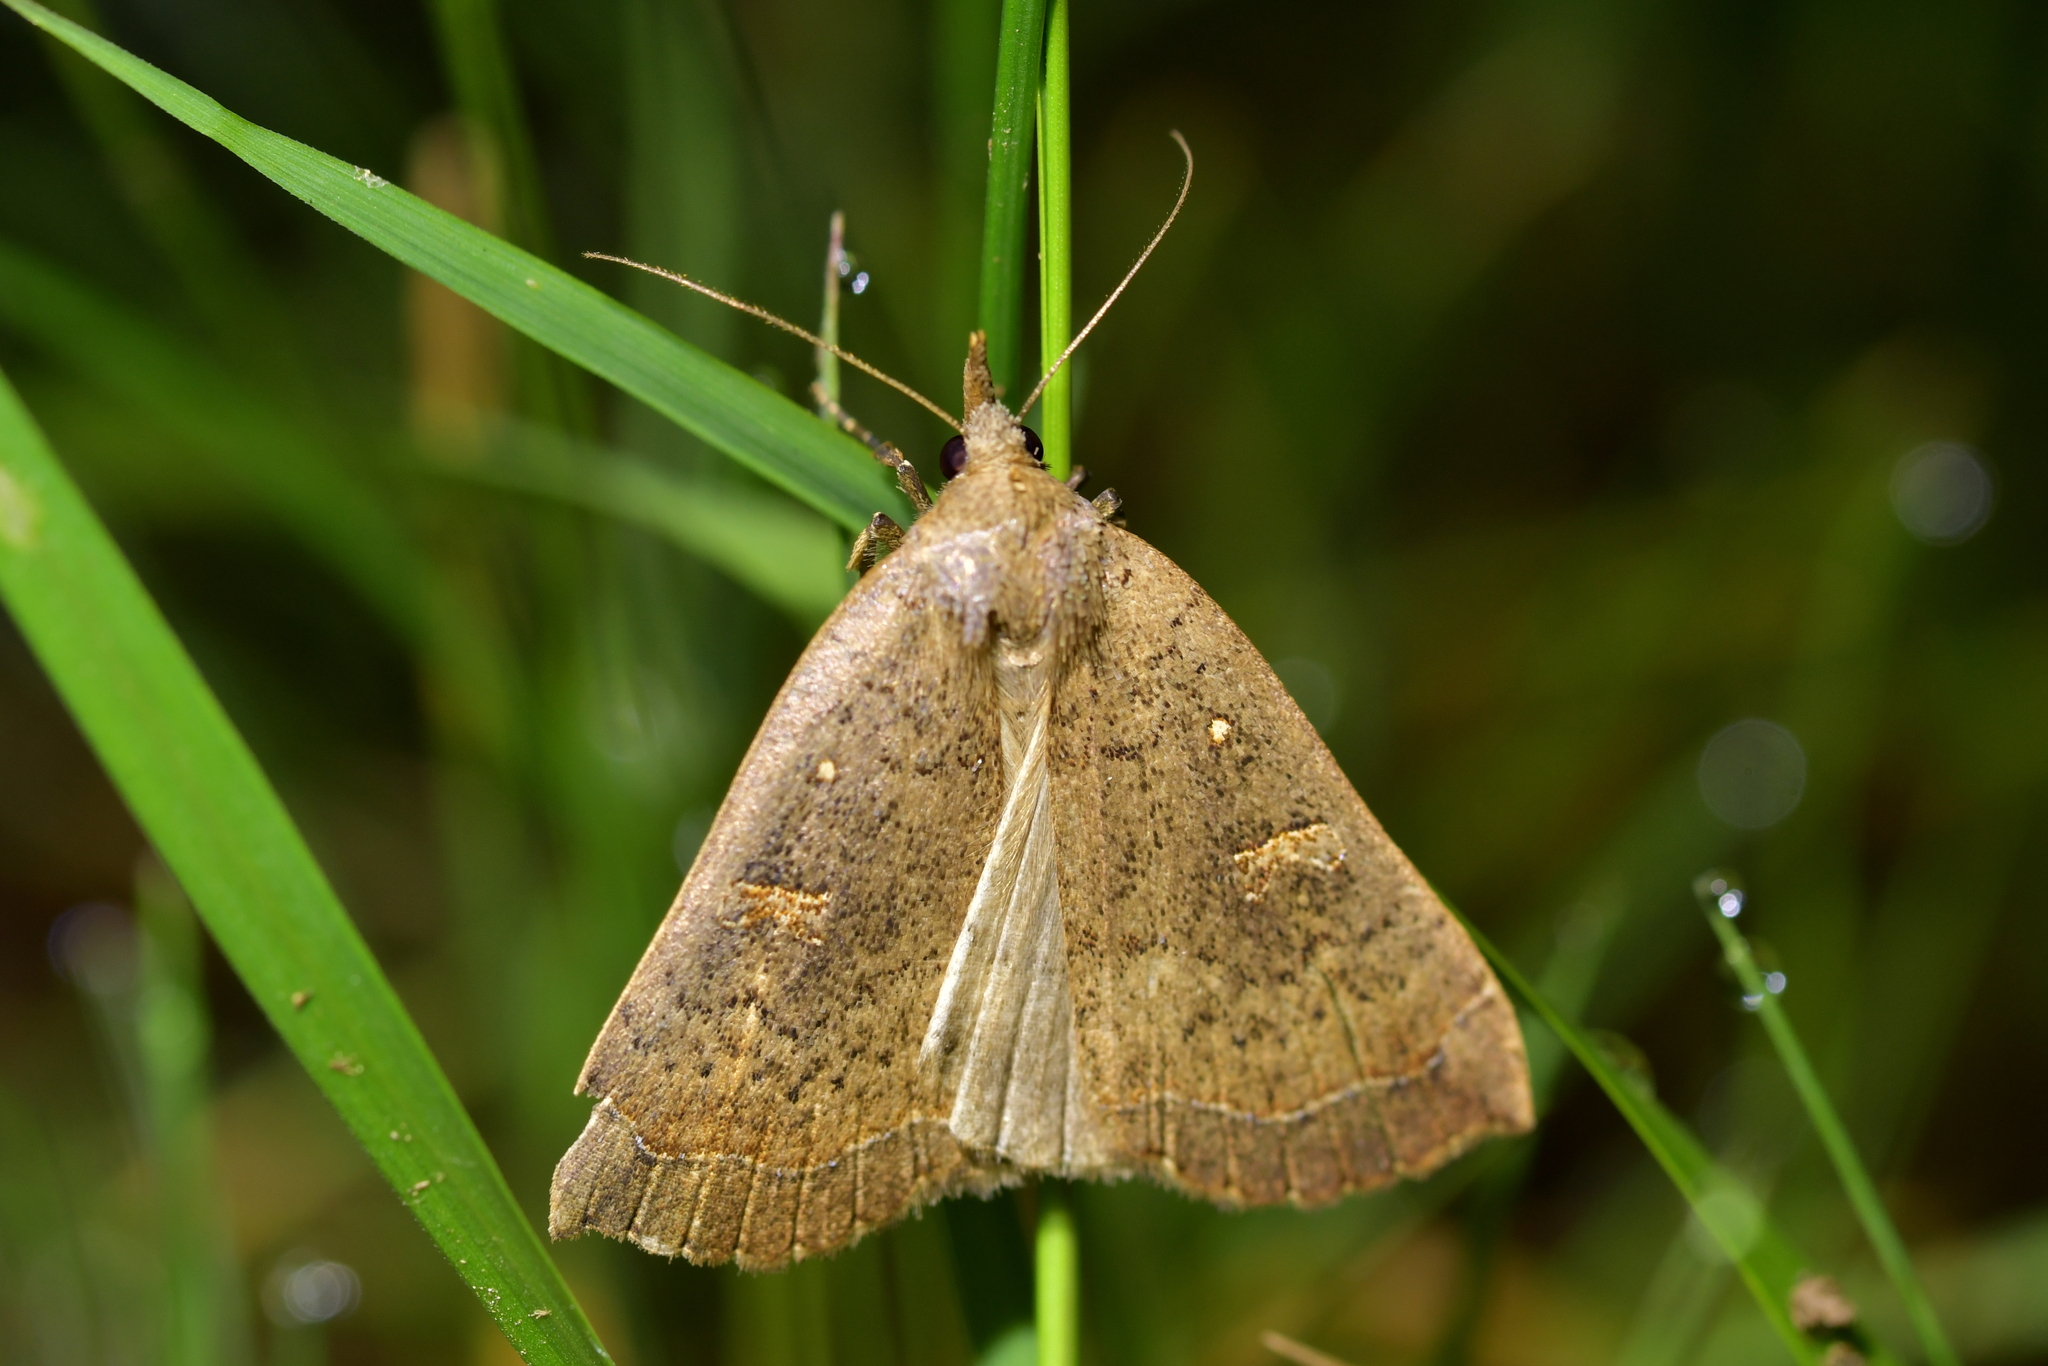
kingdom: Animalia
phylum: Arthropoda
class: Insecta
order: Lepidoptera
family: Erebidae
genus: Rhapsa
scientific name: Rhapsa scotosialis
